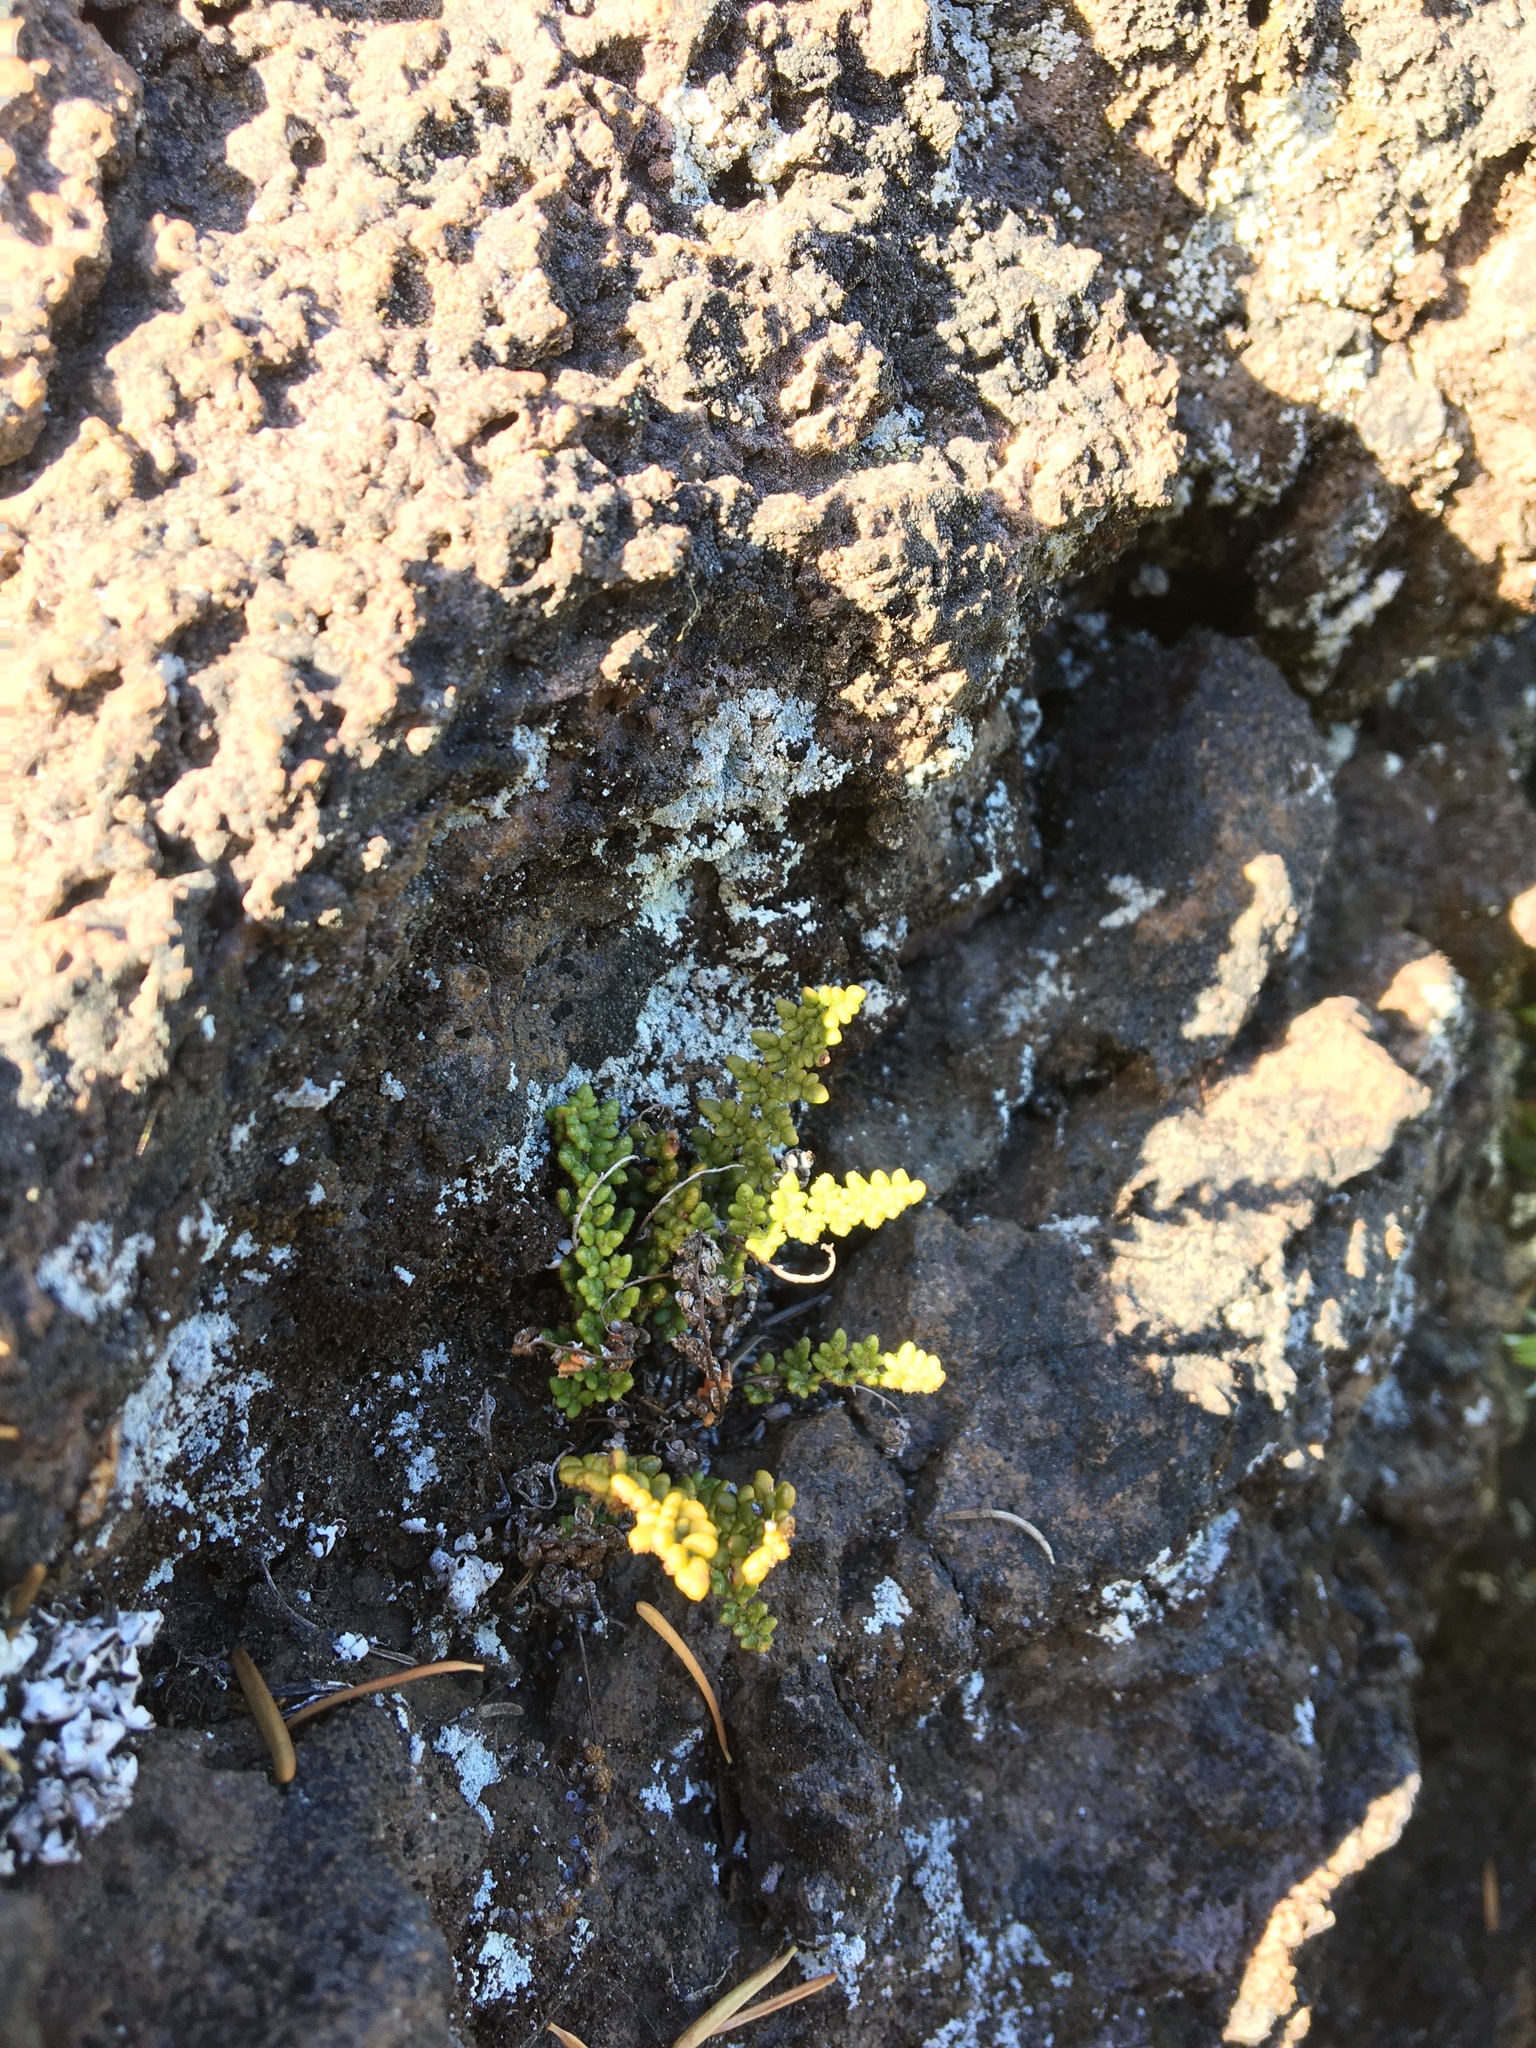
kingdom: Plantae
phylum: Tracheophyta
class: Polypodiopsida
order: Polypodiales
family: Pteridaceae
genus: Myriopteris
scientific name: Myriopteris gracillima
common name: Lace fern
